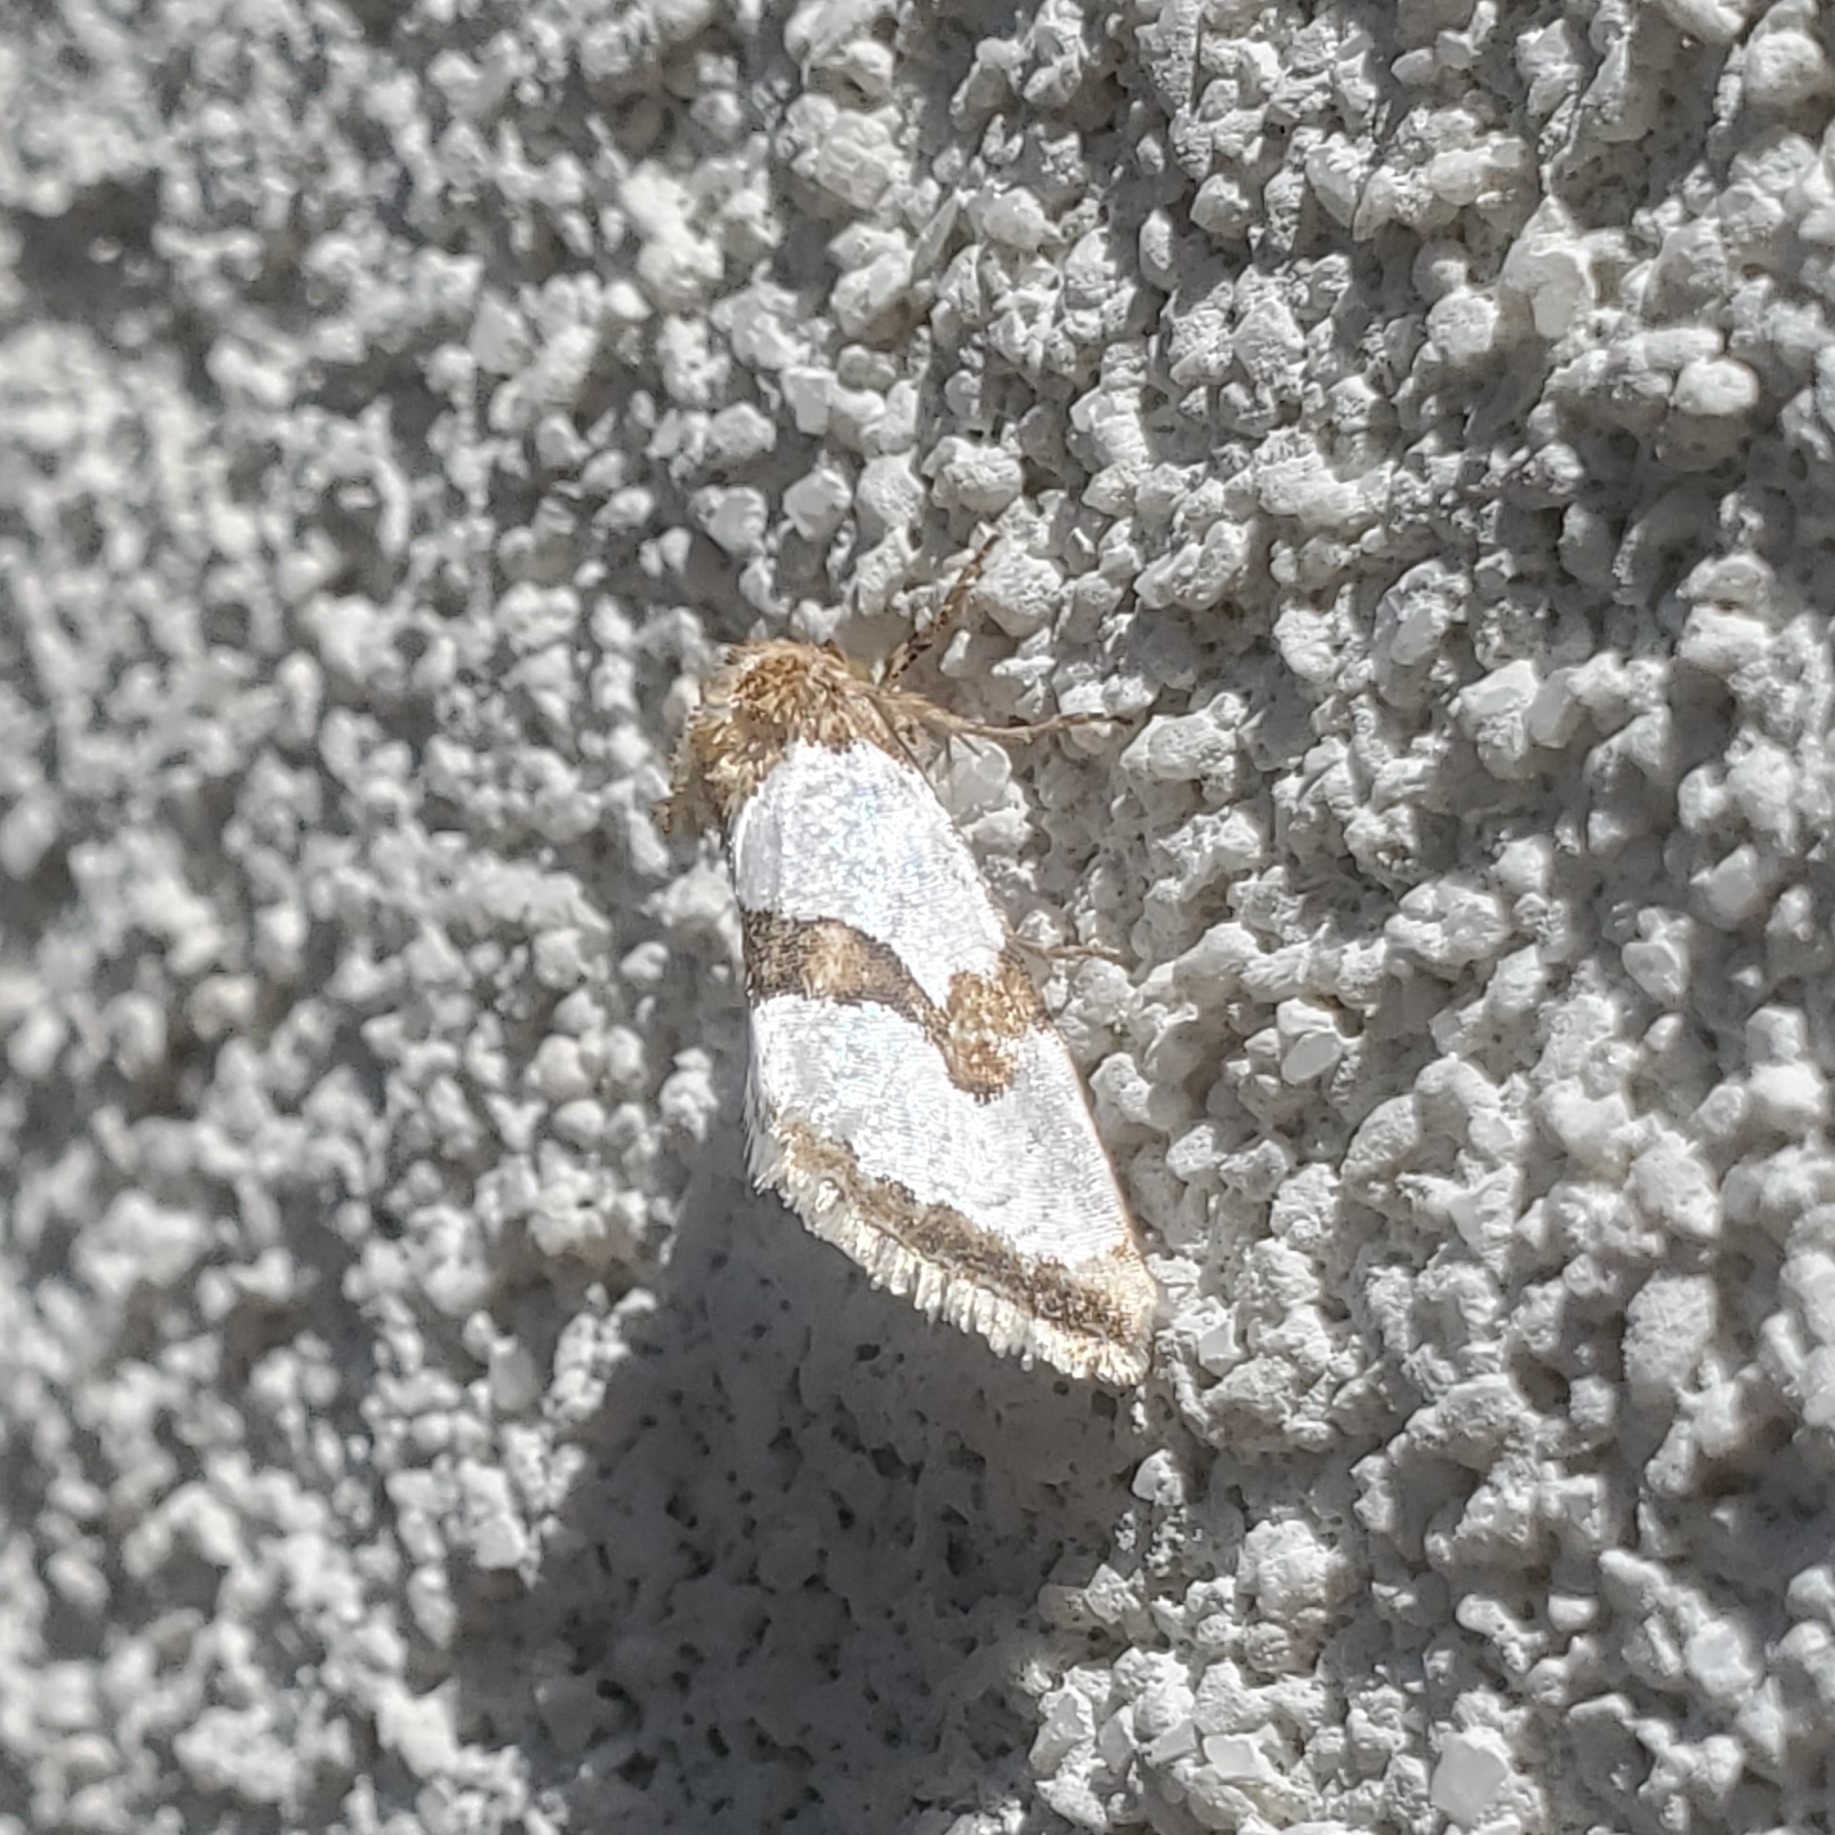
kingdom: Animalia
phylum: Arthropoda
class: Insecta
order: Lepidoptera
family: Noctuidae
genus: Schinia
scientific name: Schinia chrysellus
